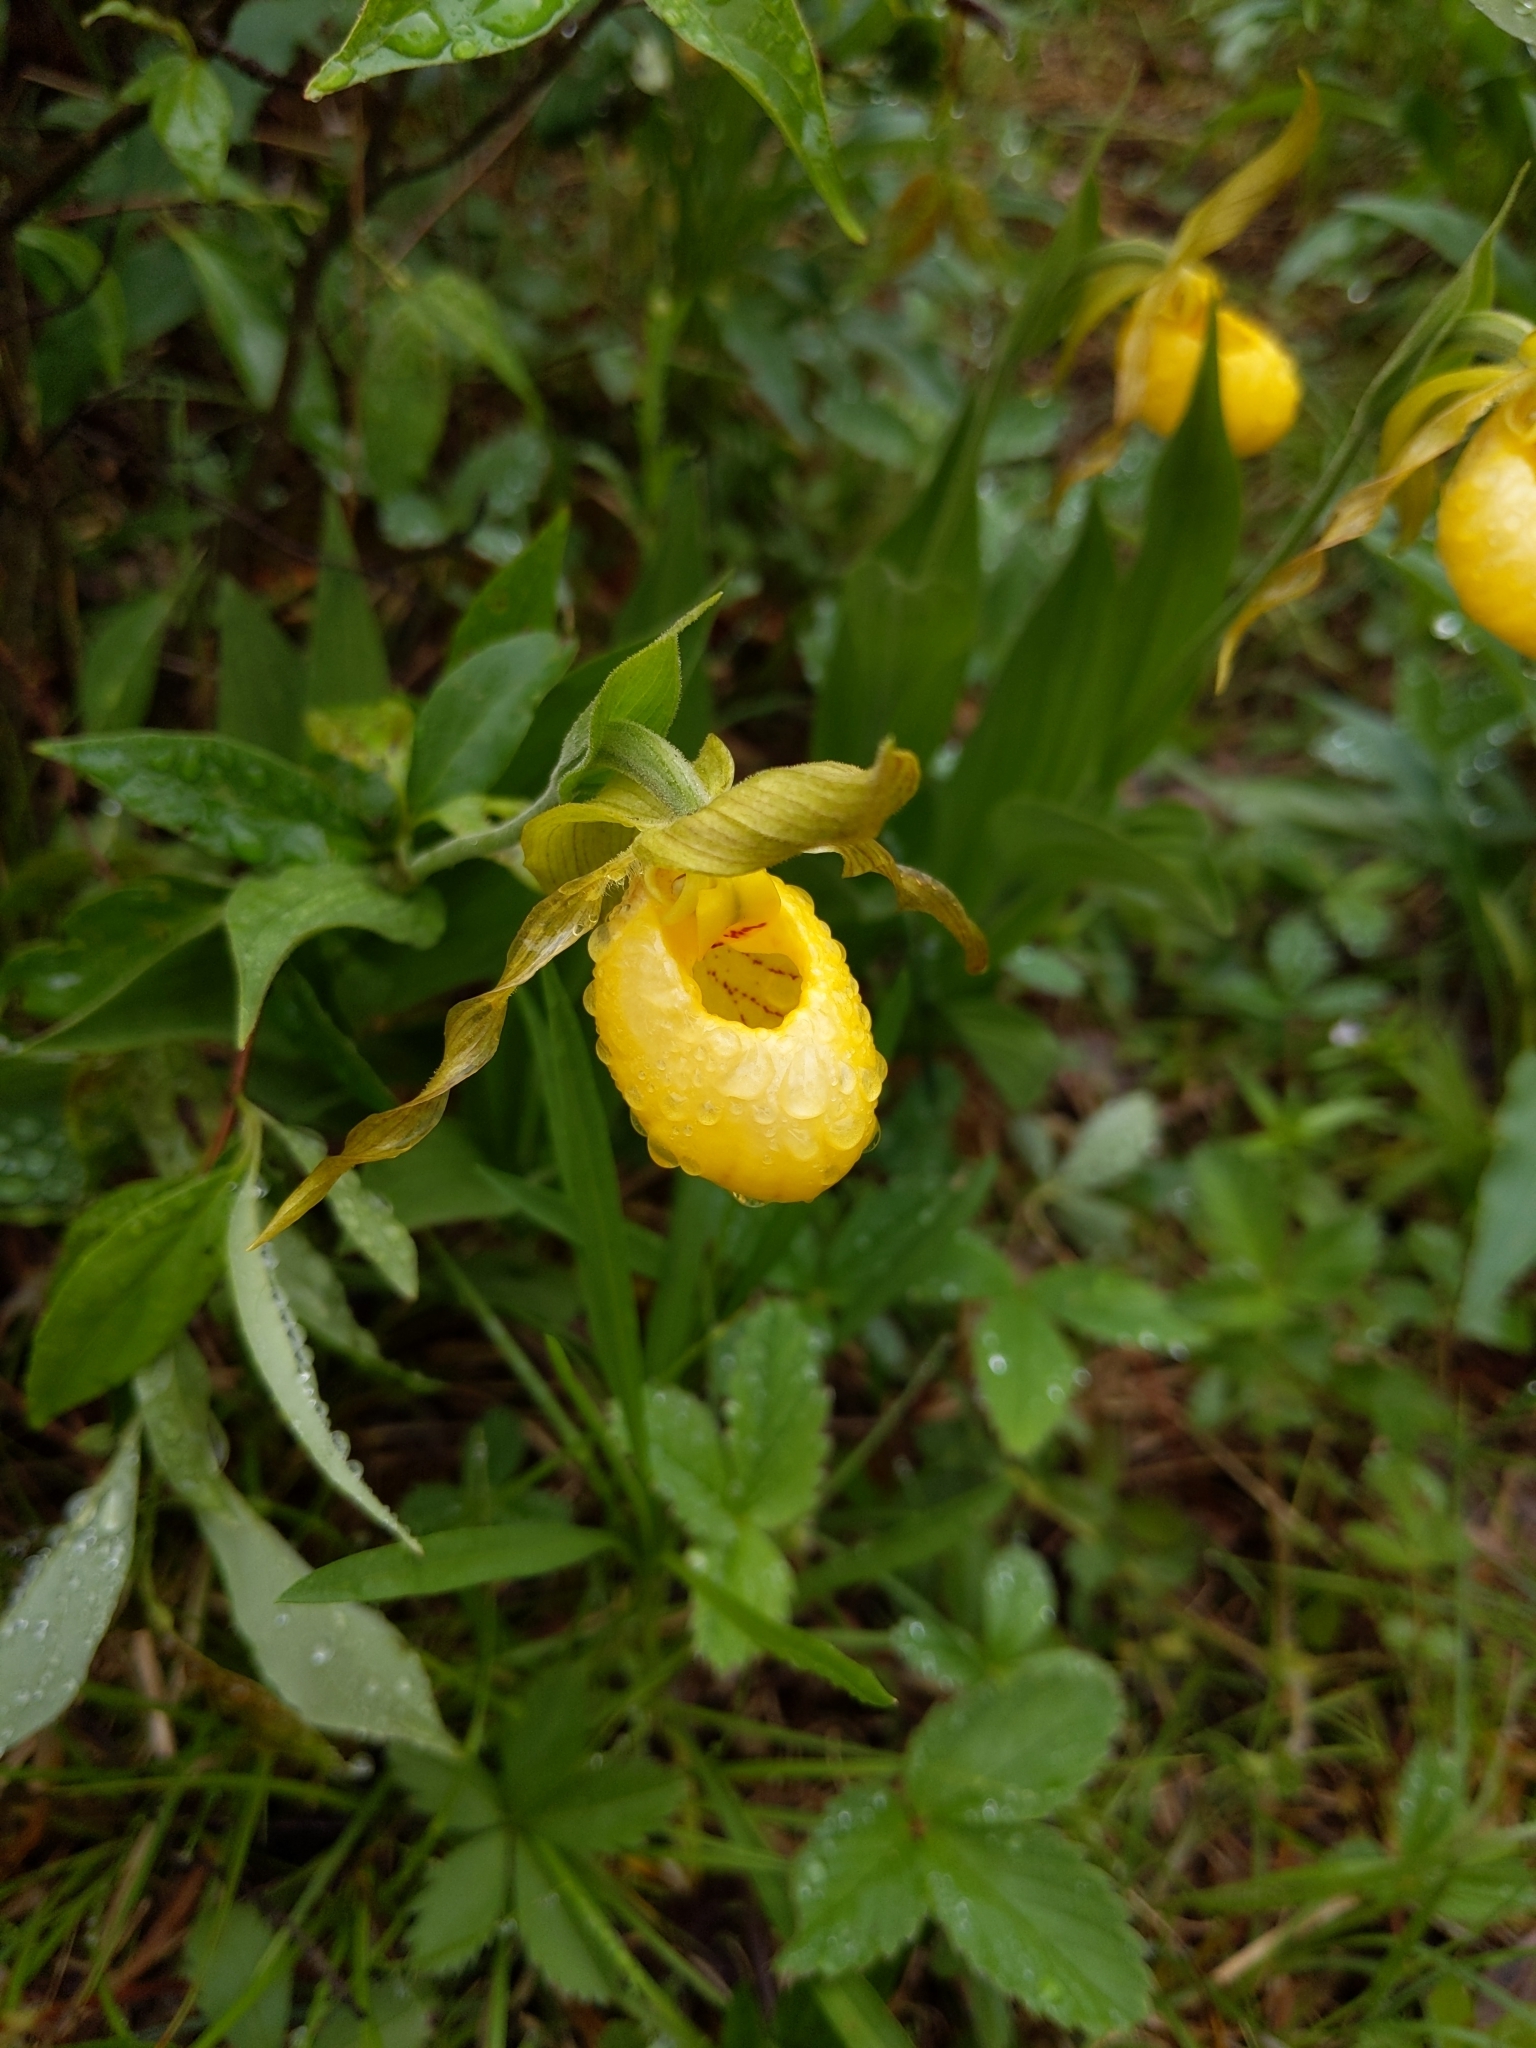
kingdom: Plantae
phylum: Tracheophyta
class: Liliopsida
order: Asparagales
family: Orchidaceae
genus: Cypripedium
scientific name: Cypripedium parviflorum
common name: American yellow lady's-slipper
